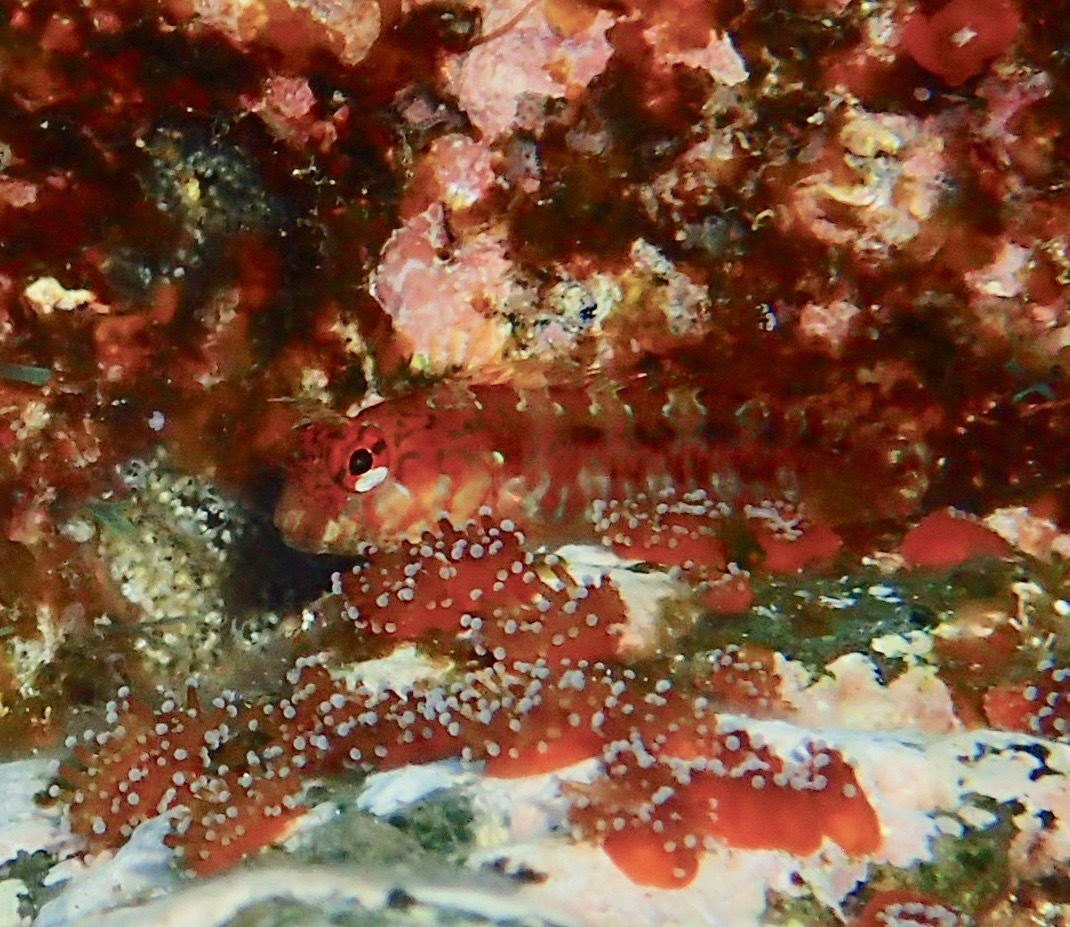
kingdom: Animalia
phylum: Chordata
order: Perciformes
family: Blenniidae
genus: Parablennius
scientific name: Parablennius ruber
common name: Portuguese blenny
